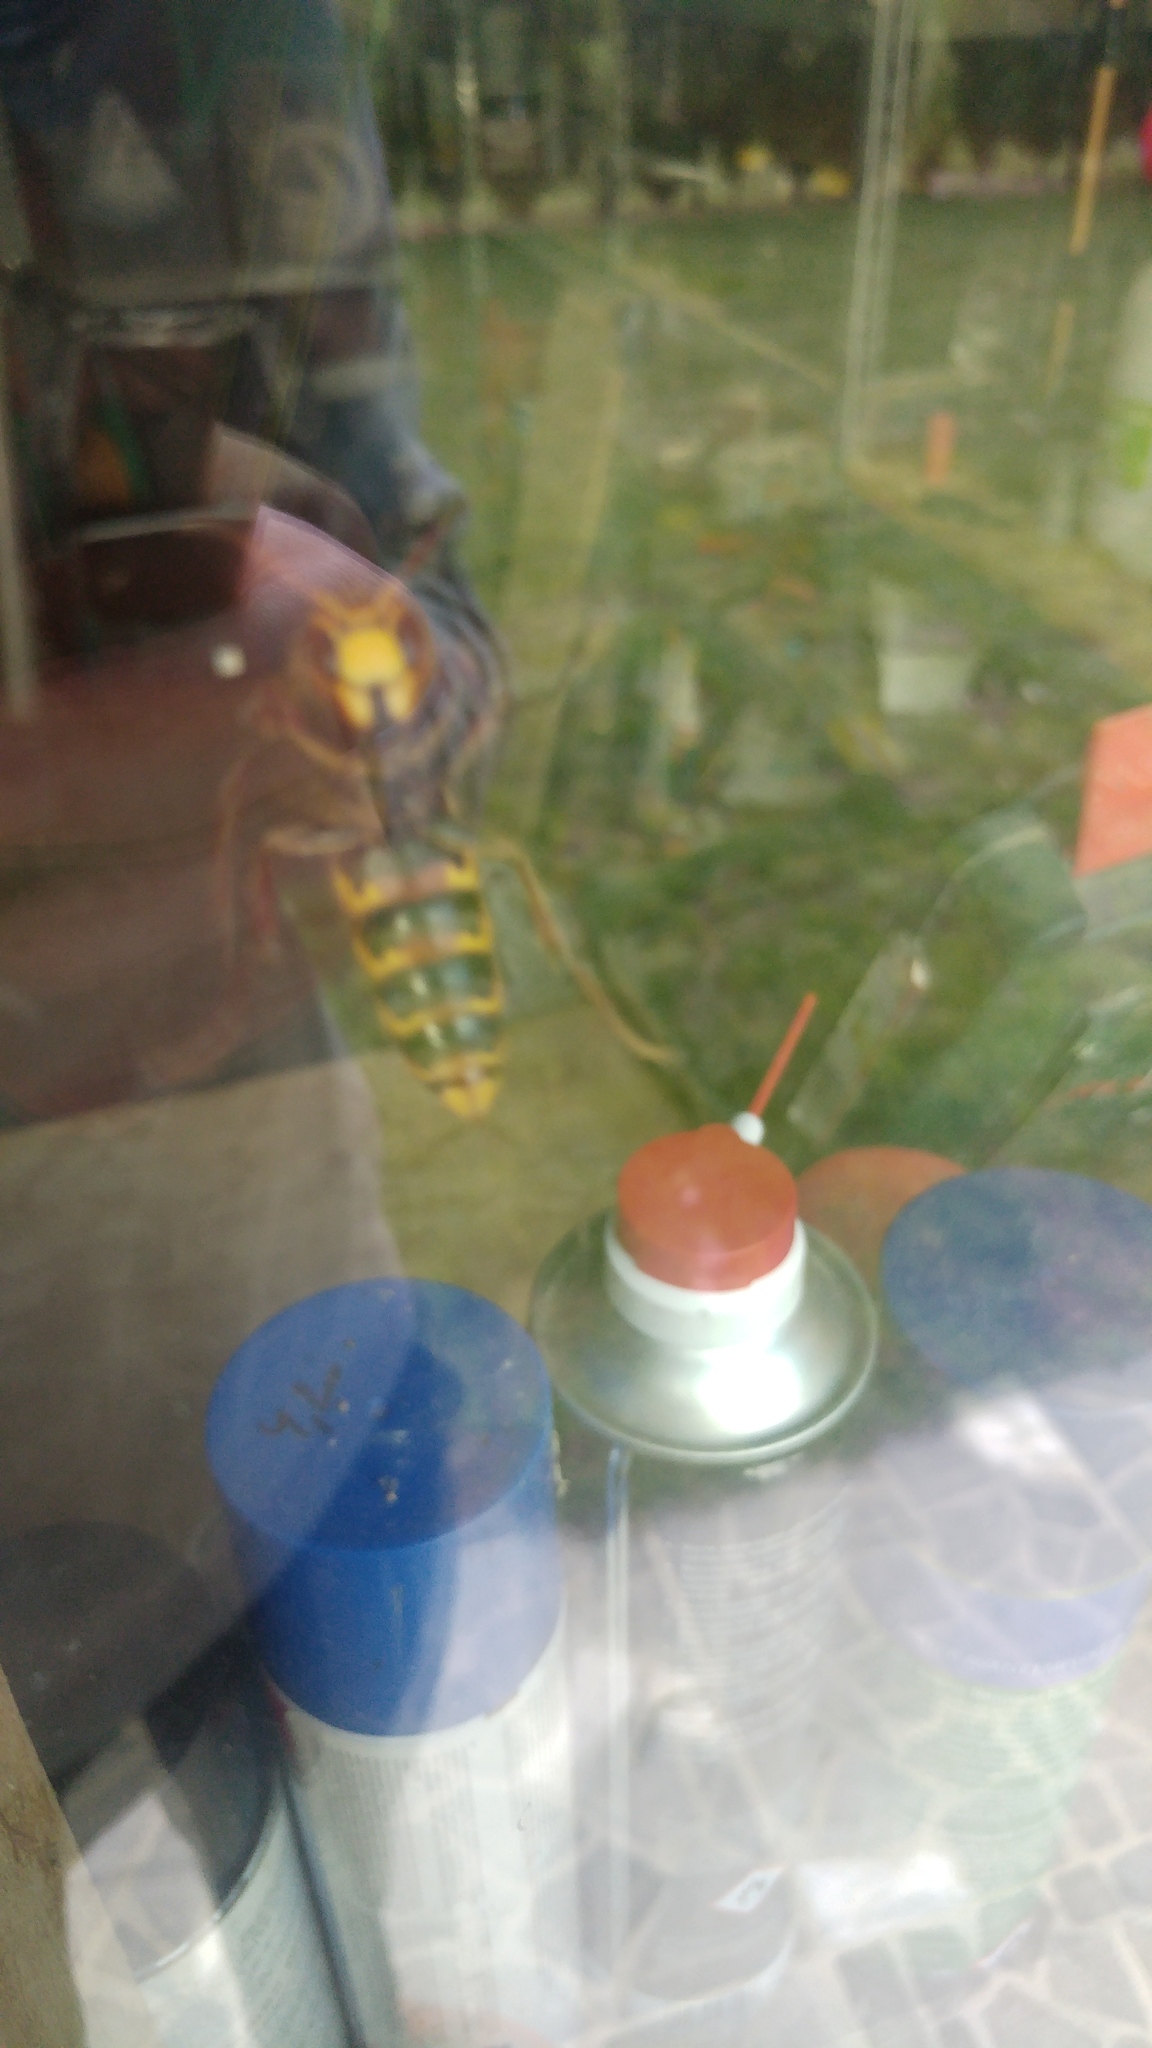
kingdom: Animalia
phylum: Arthropoda
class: Insecta
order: Hymenoptera
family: Vespidae
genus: Vespa
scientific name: Vespa crabro
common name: Hornet
